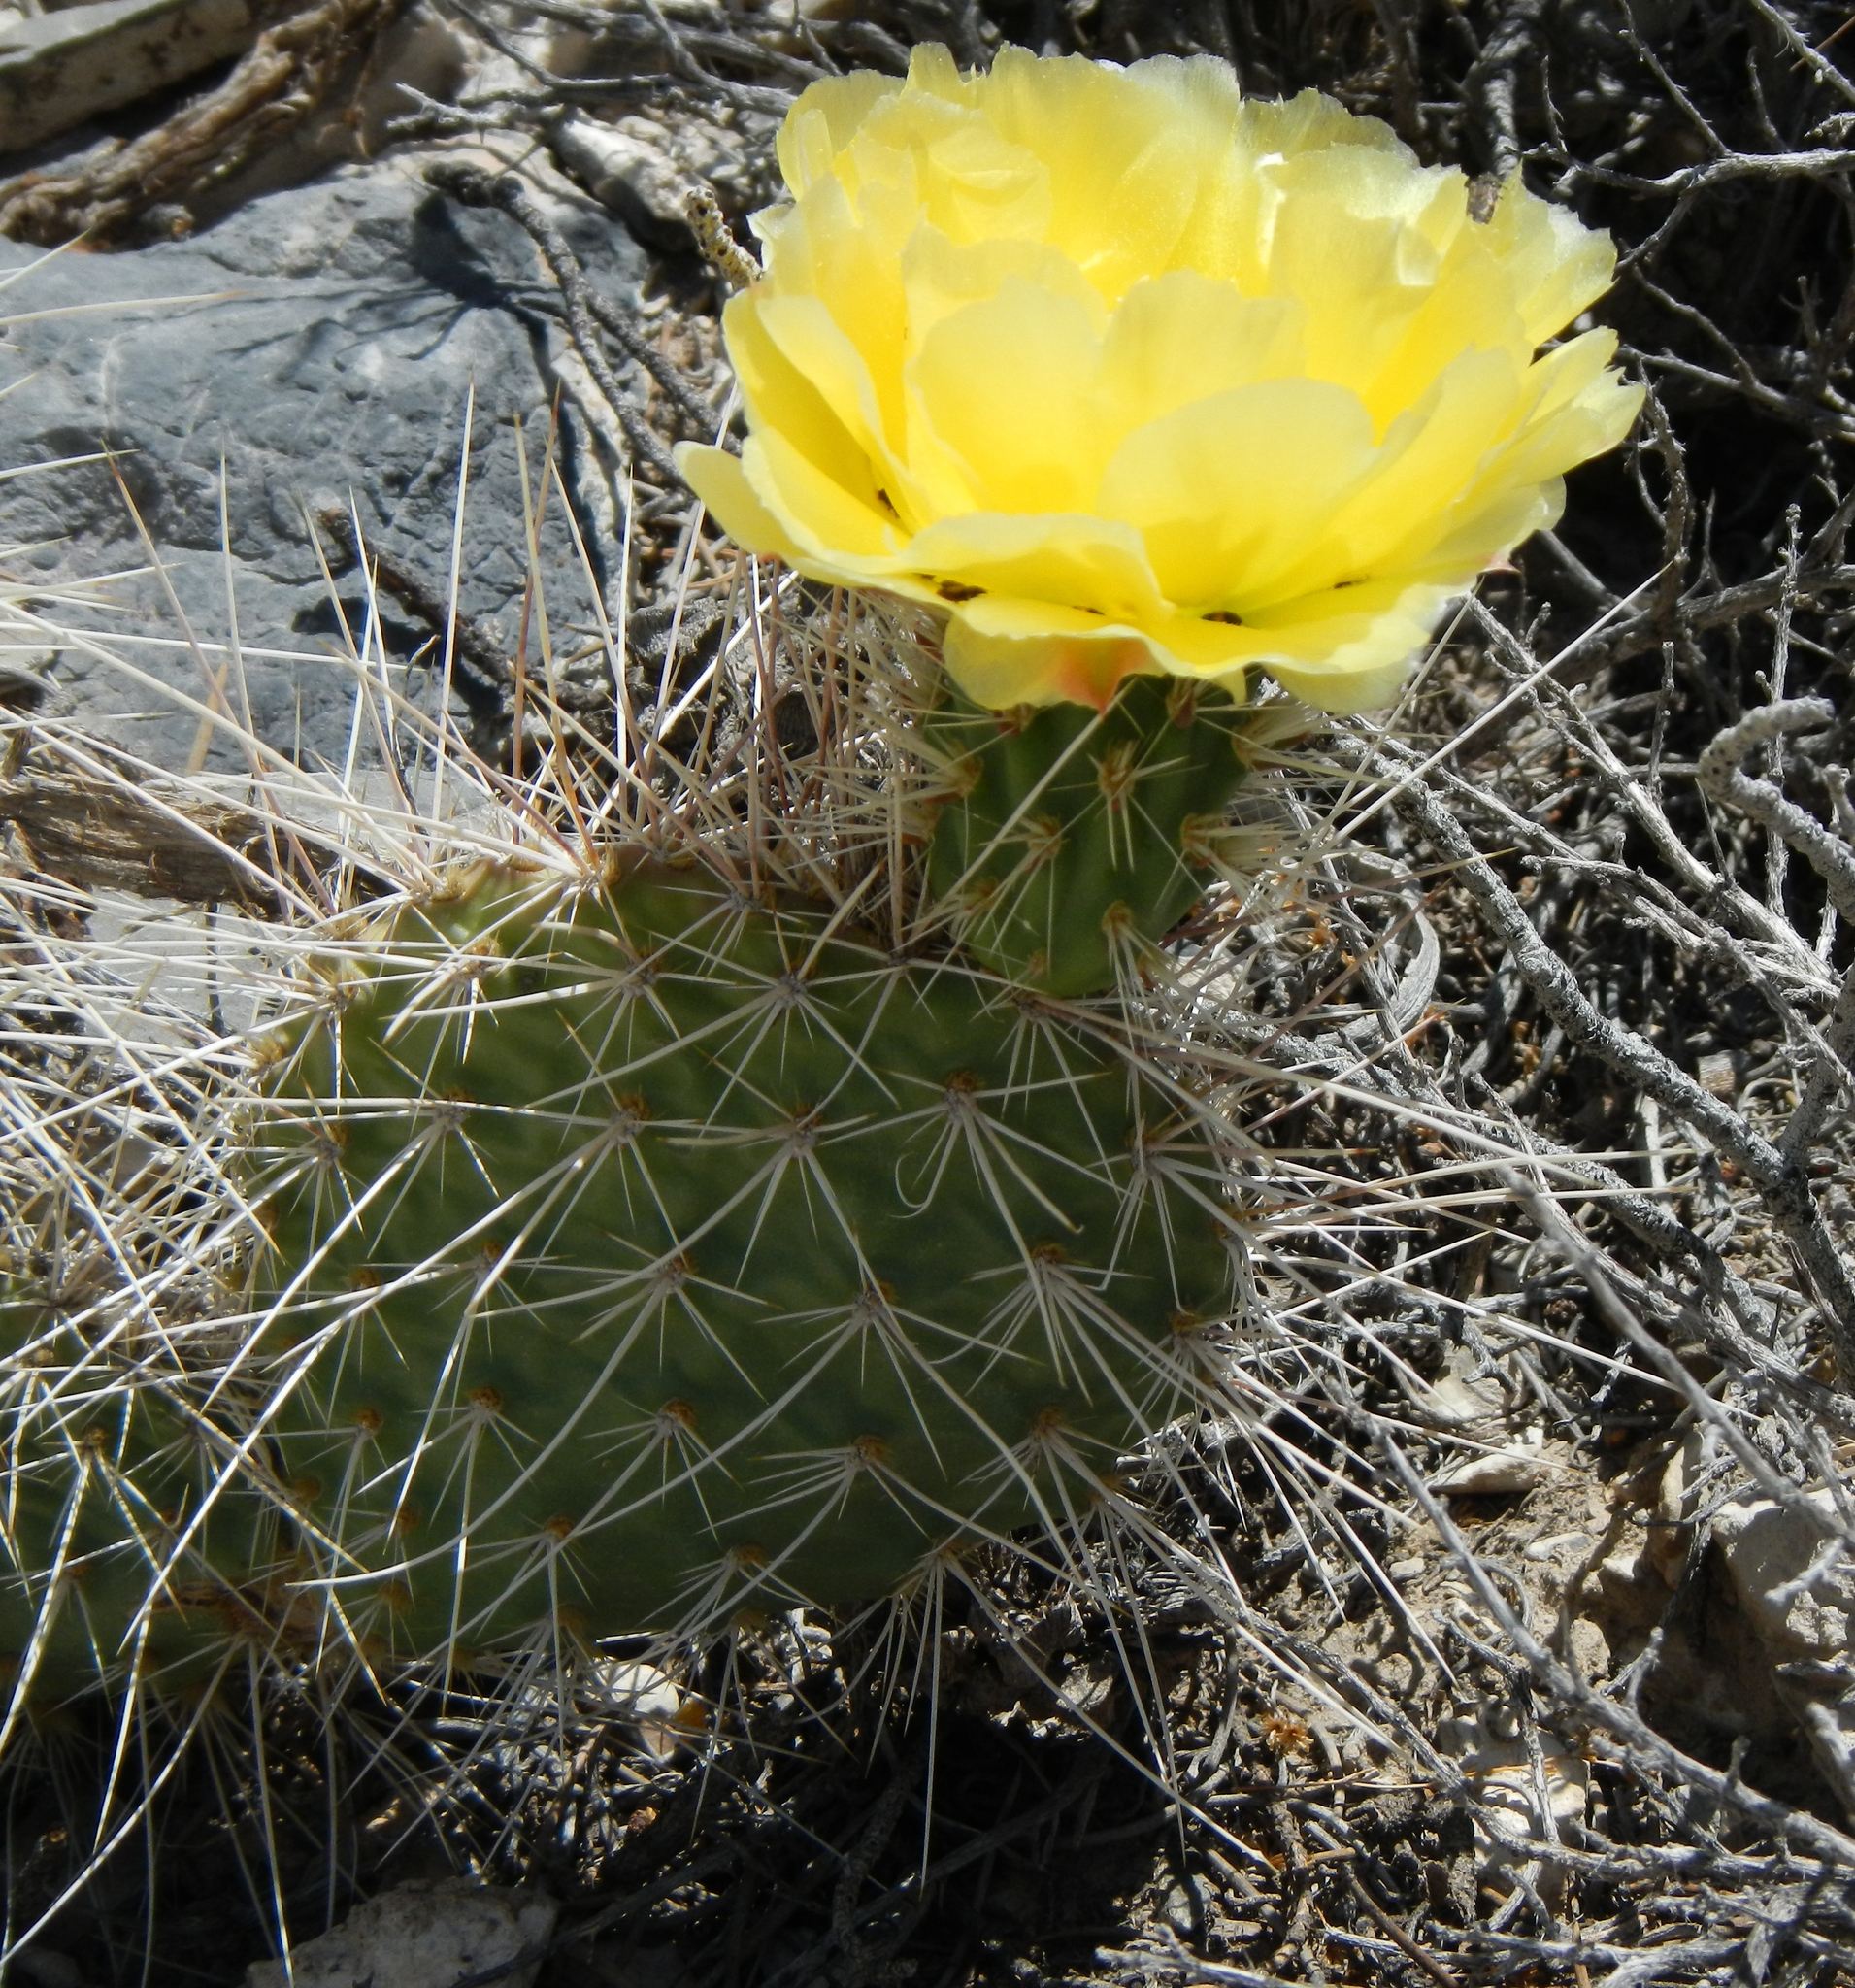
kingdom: Plantae
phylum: Tracheophyta
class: Magnoliopsida
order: Caryophyllales
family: Cactaceae
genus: Opuntia
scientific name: Opuntia polyacantha
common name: Plains prickly-pear
